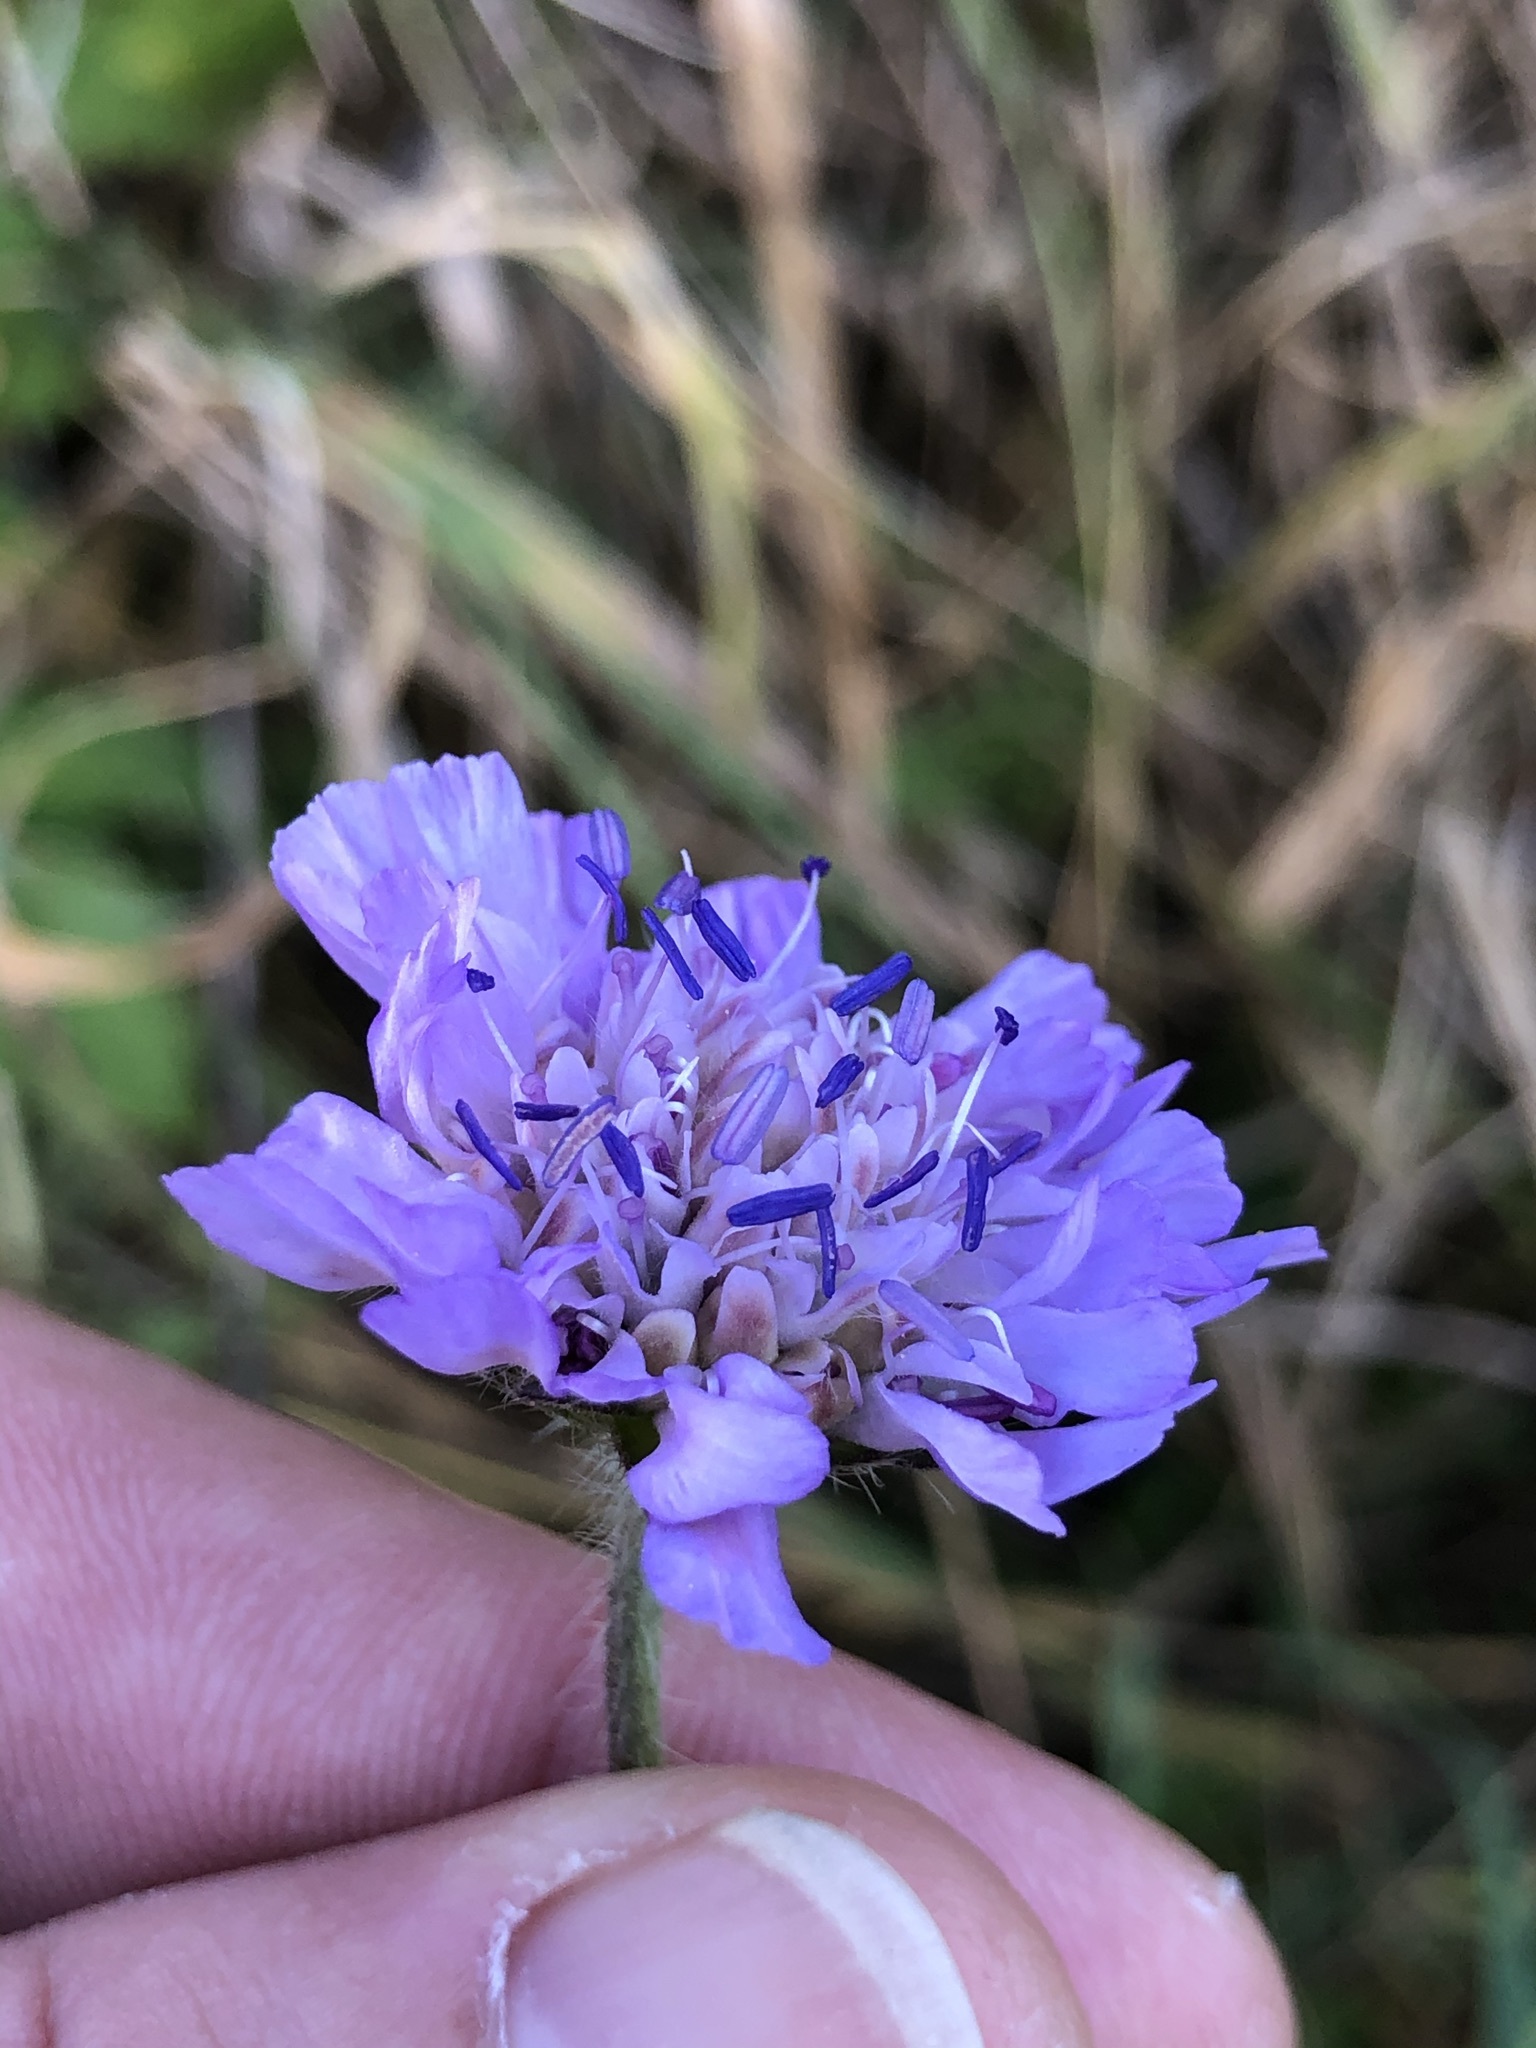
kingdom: Plantae
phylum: Tracheophyta
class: Magnoliopsida
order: Dipsacales
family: Caprifoliaceae
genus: Knautia
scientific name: Knautia arvensis
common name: Field scabiosa
